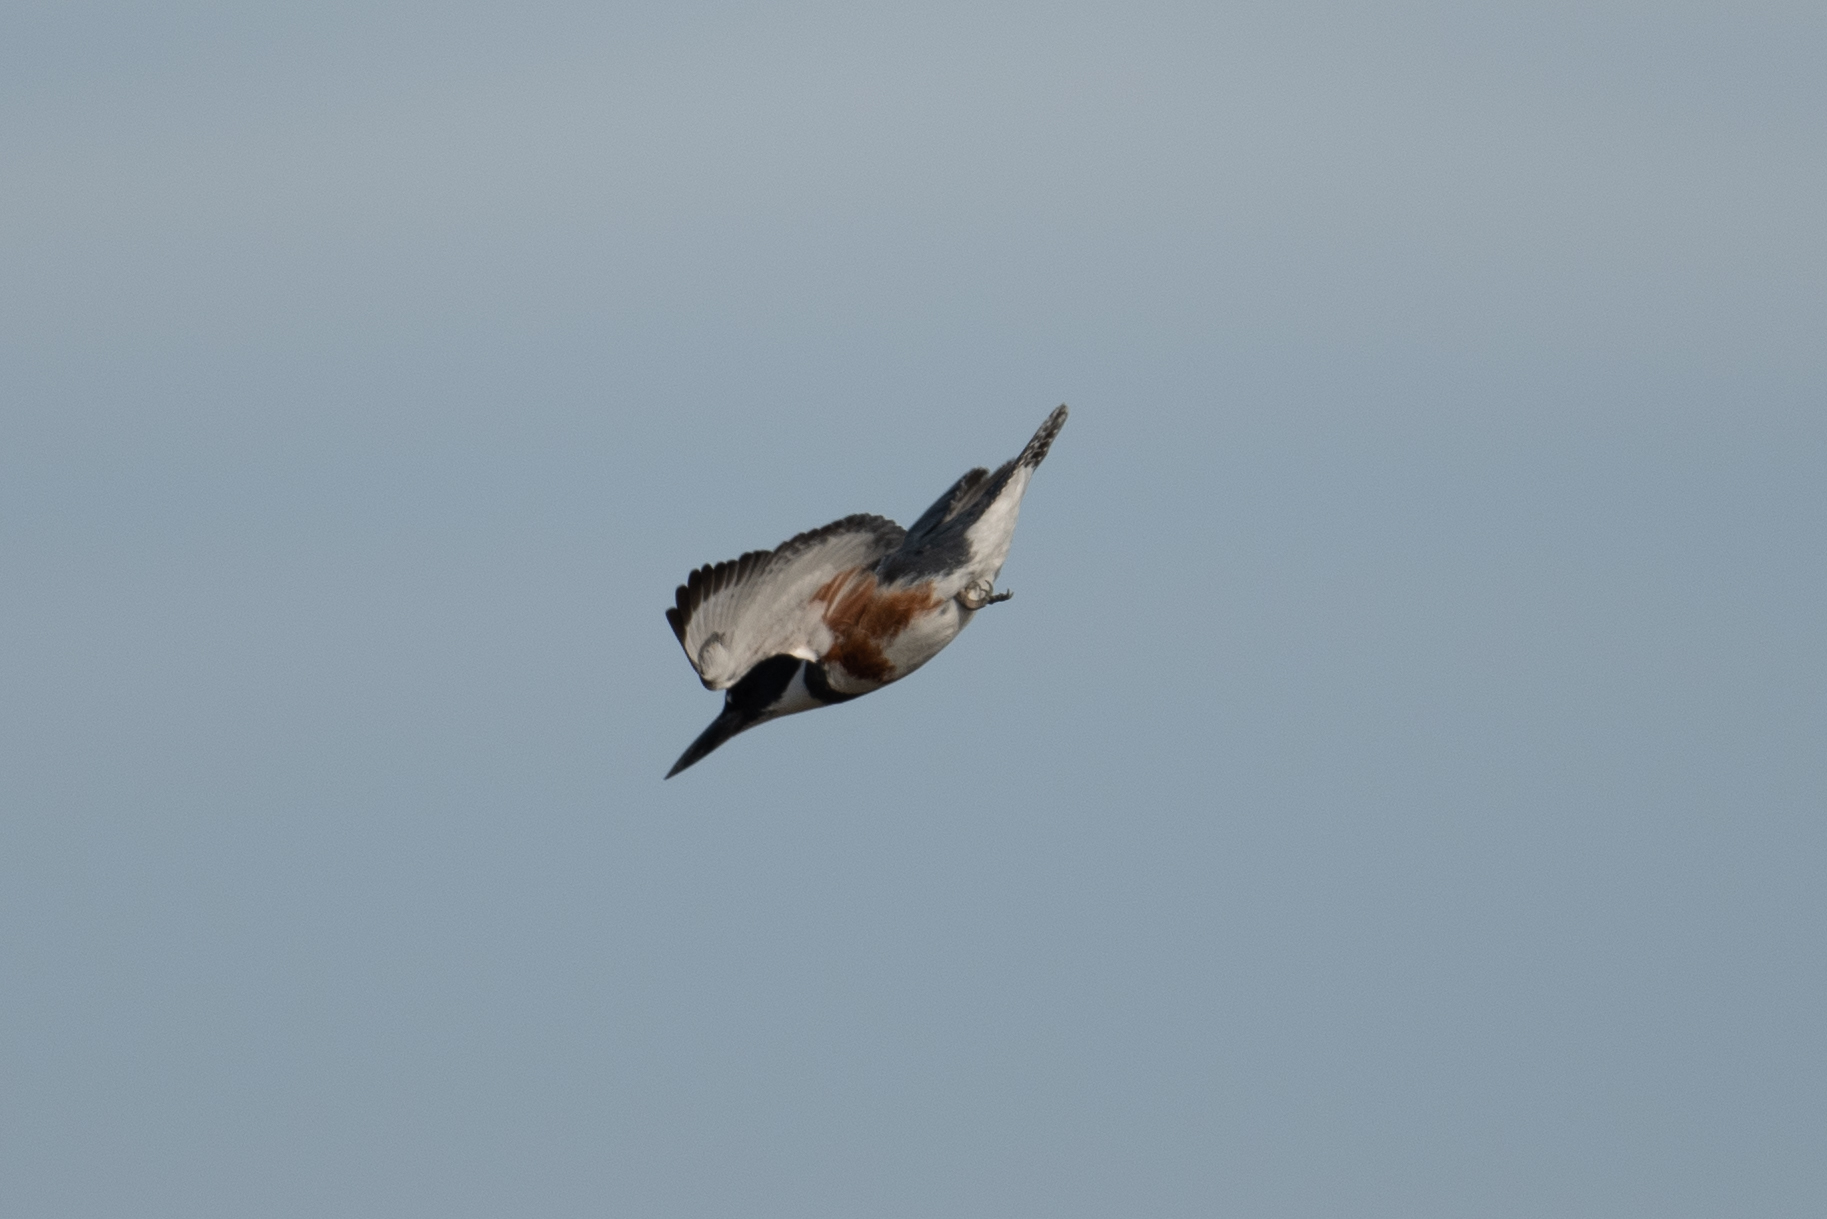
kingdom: Animalia
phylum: Chordata
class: Aves
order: Coraciiformes
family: Alcedinidae
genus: Megaceryle
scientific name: Megaceryle alcyon
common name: Belted kingfisher
